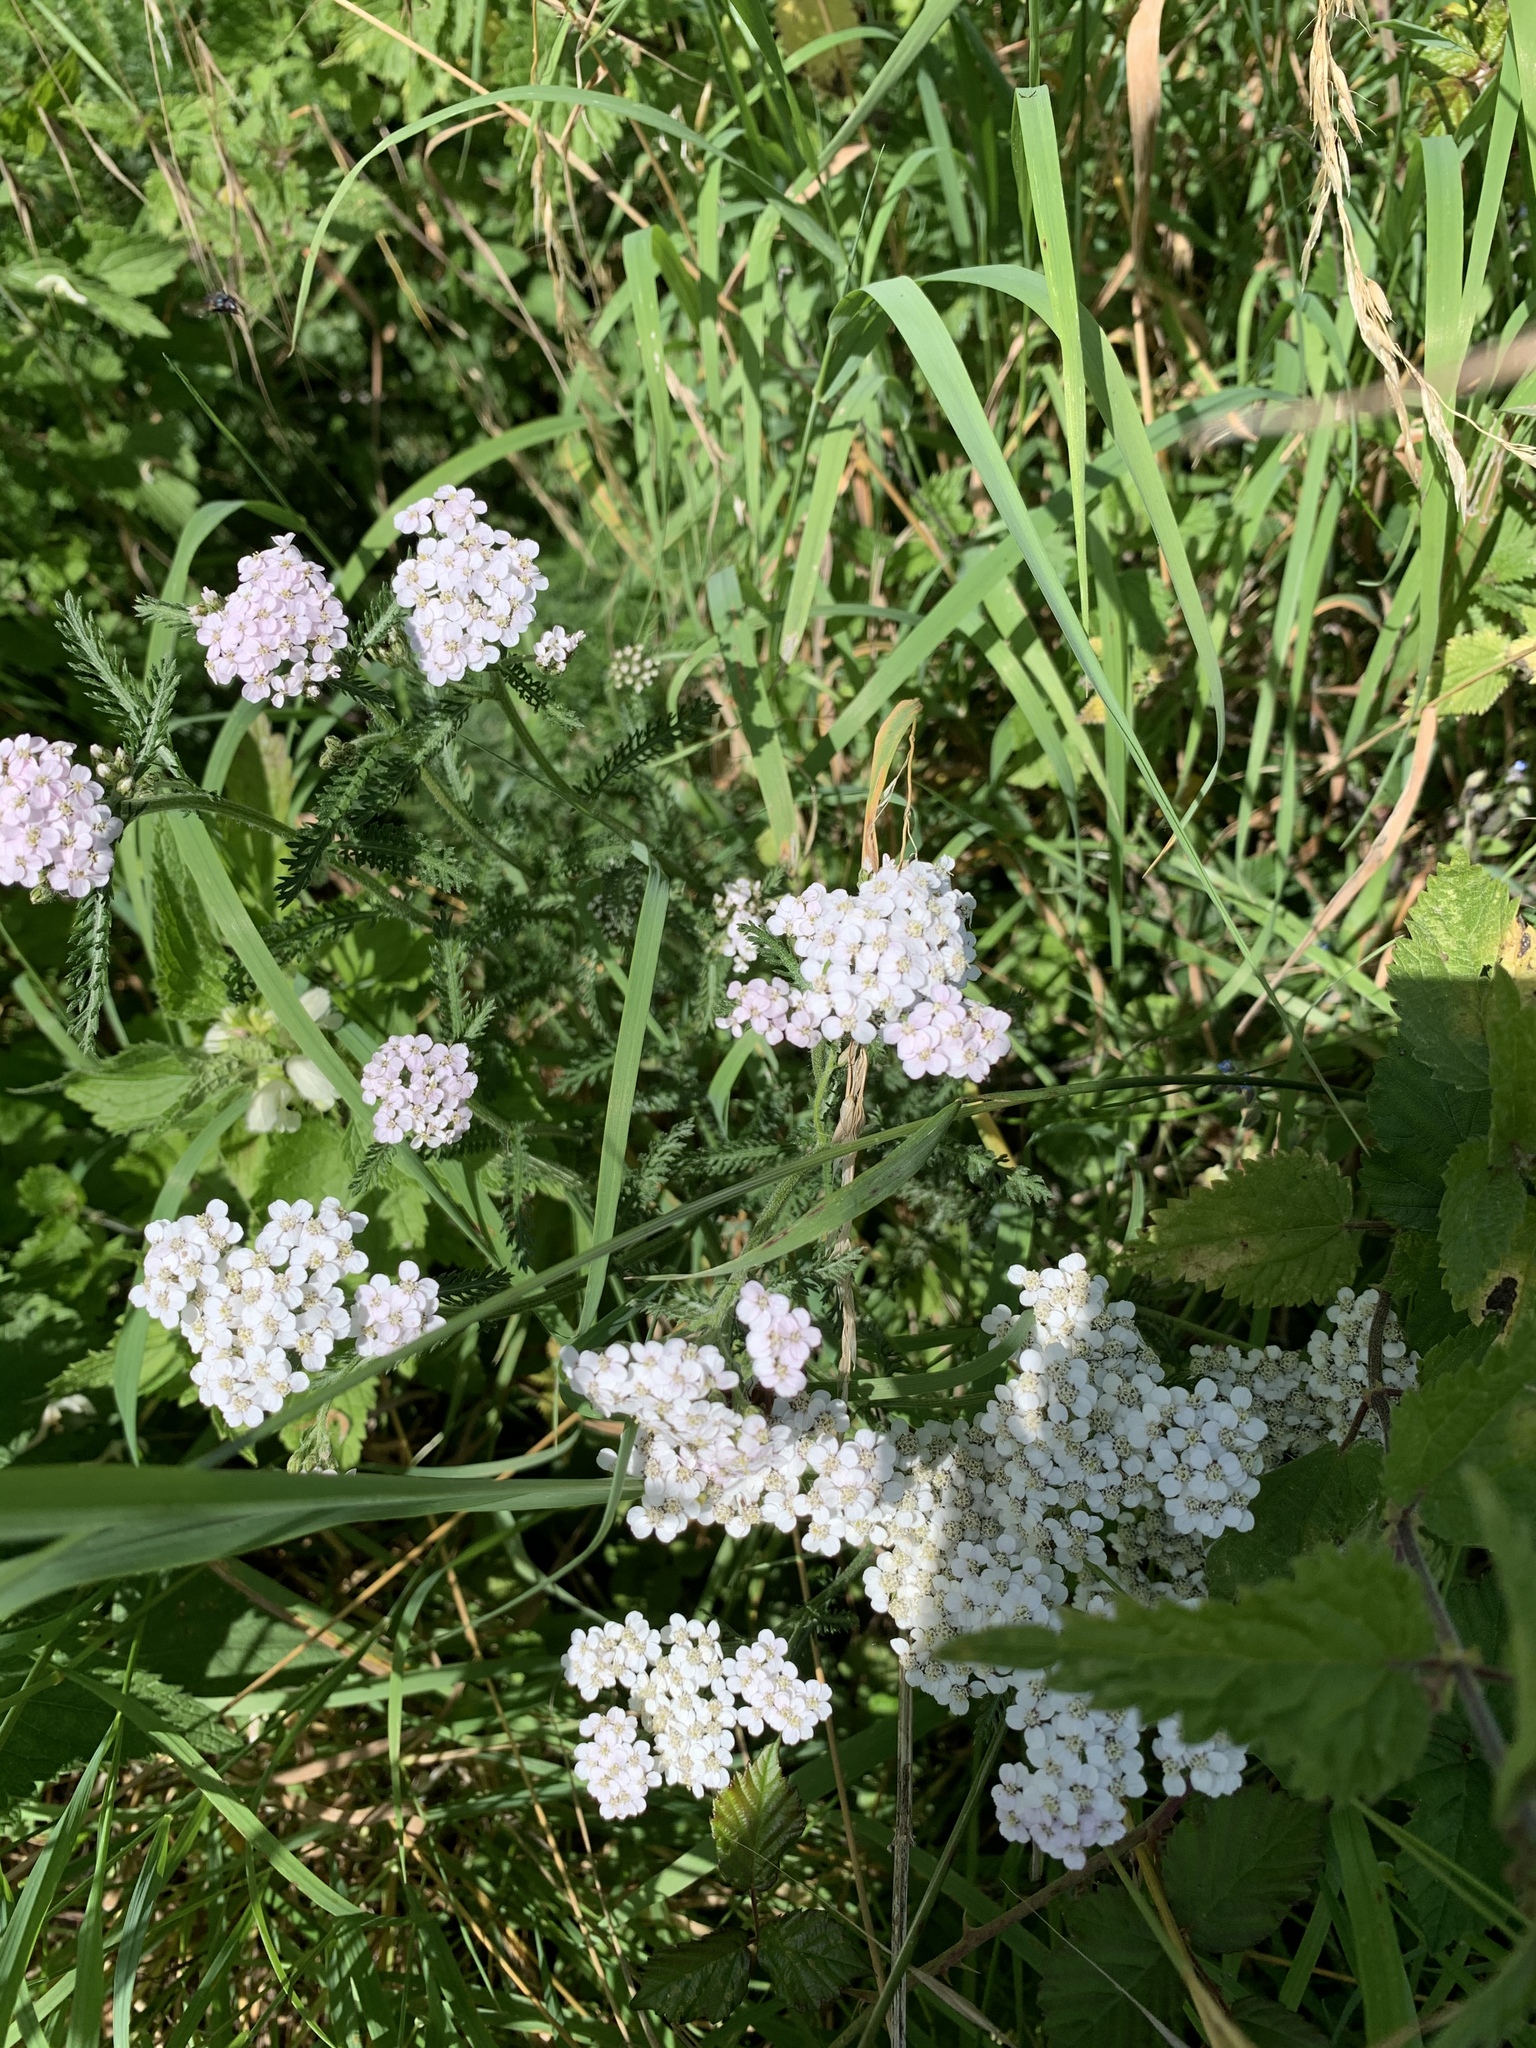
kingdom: Plantae
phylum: Tracheophyta
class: Magnoliopsida
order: Asterales
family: Asteraceae
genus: Achillea
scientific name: Achillea millefolium
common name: Yarrow
